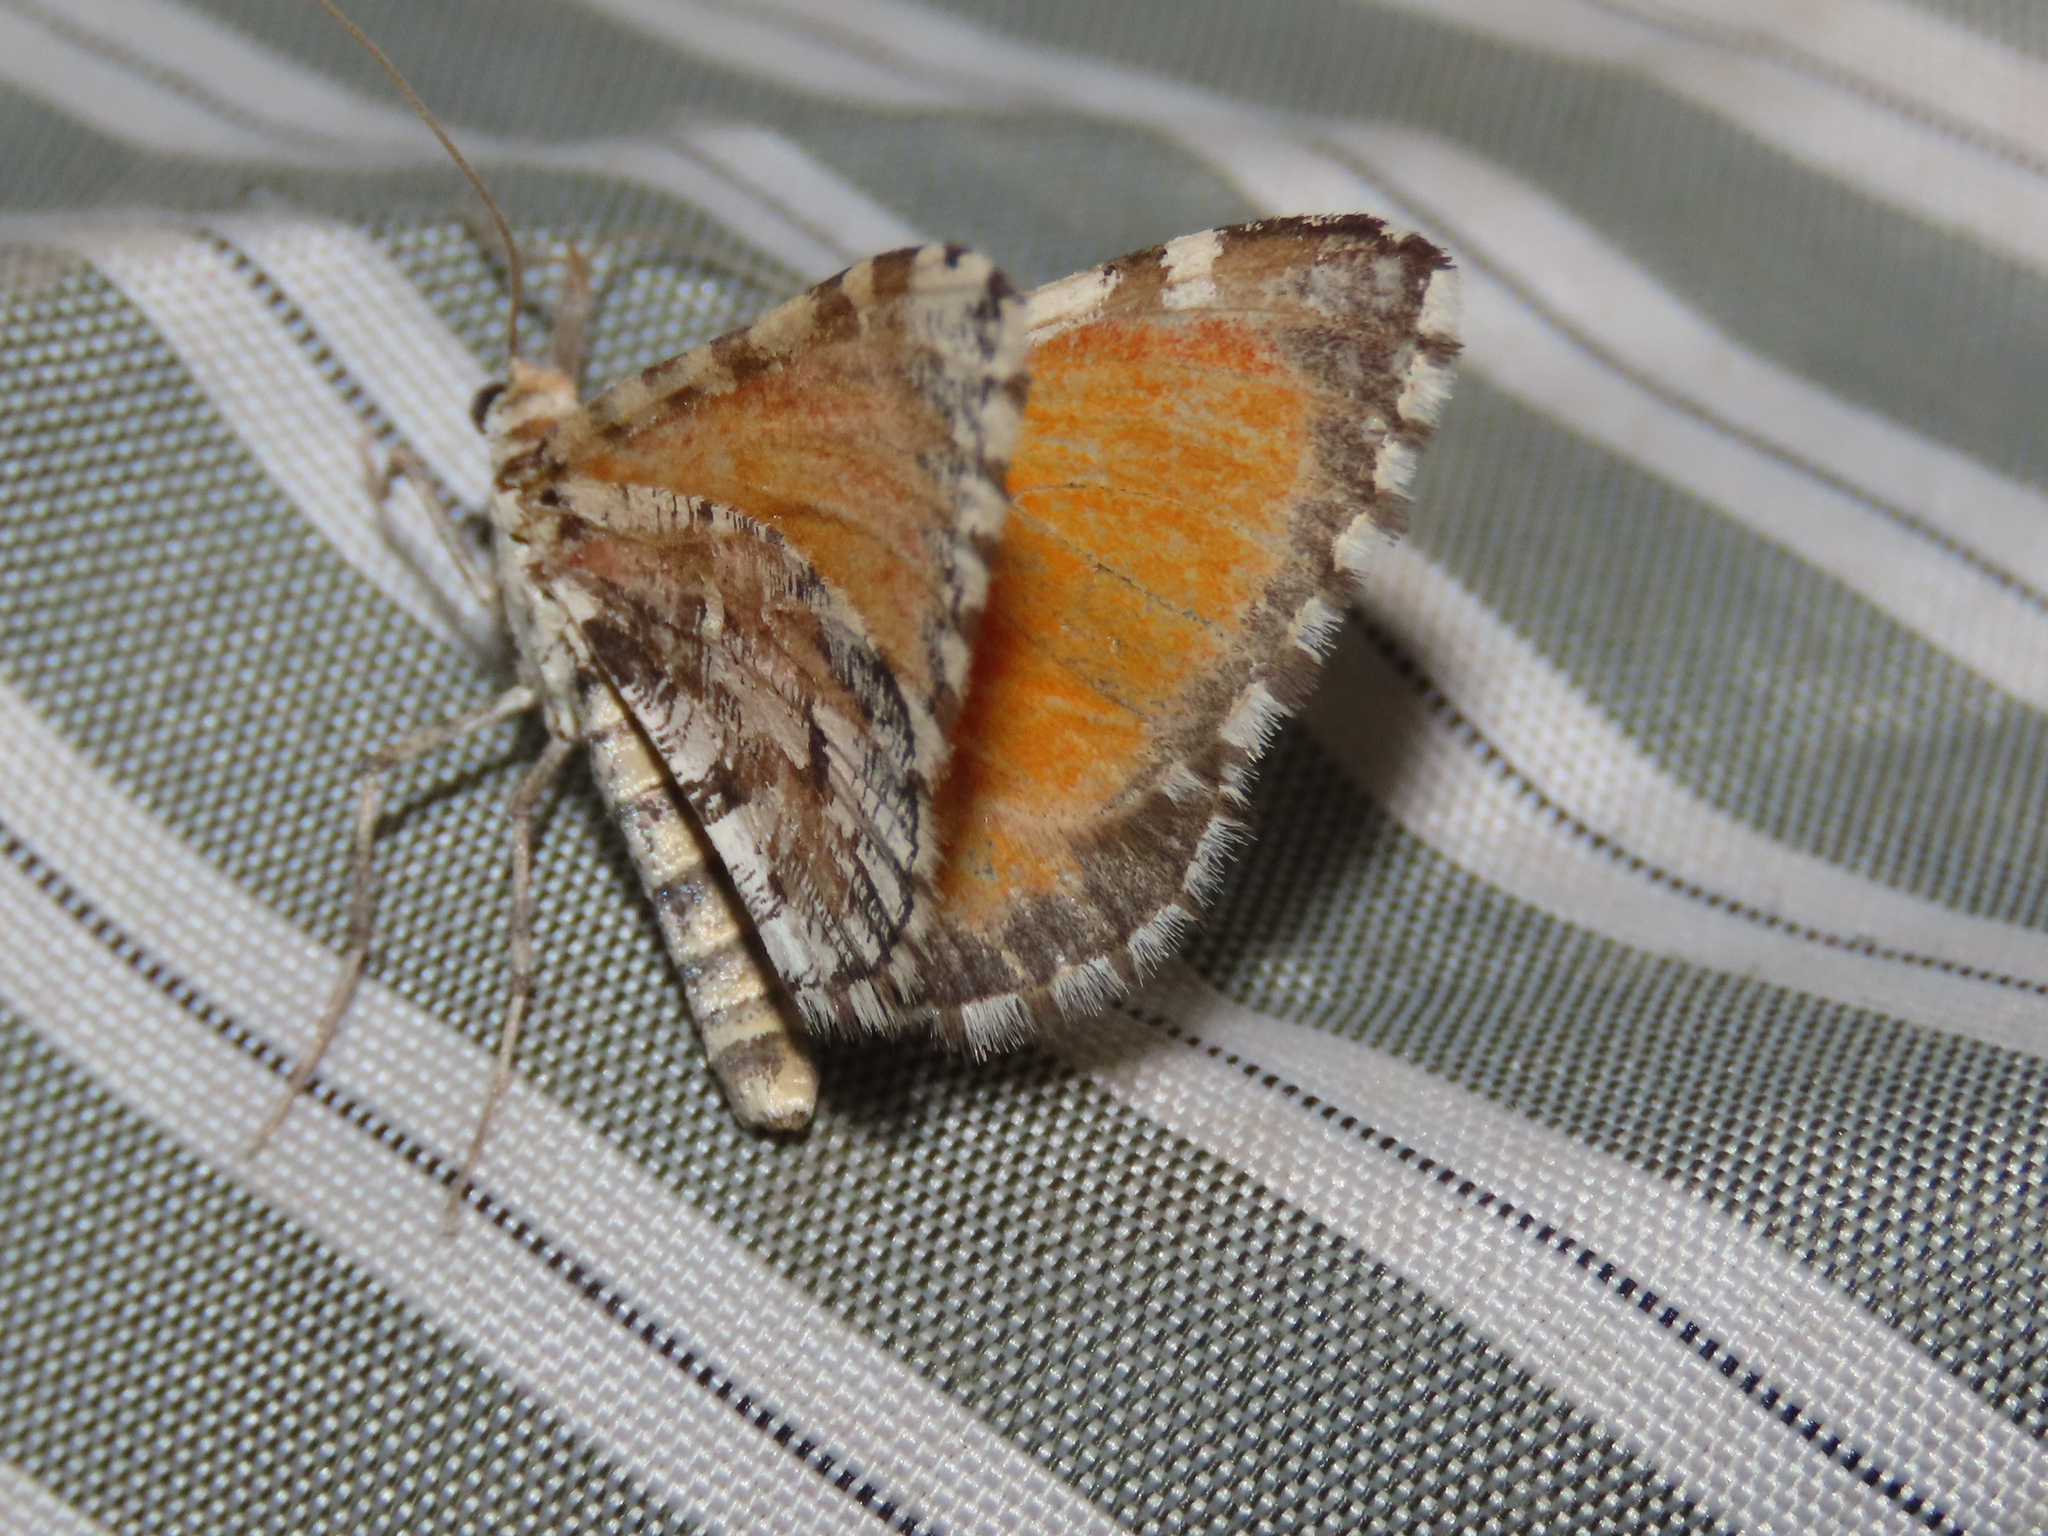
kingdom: Animalia
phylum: Arthropoda
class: Insecta
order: Lepidoptera
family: Geometridae
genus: Stamnodes
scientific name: Stamnodes tessellata
